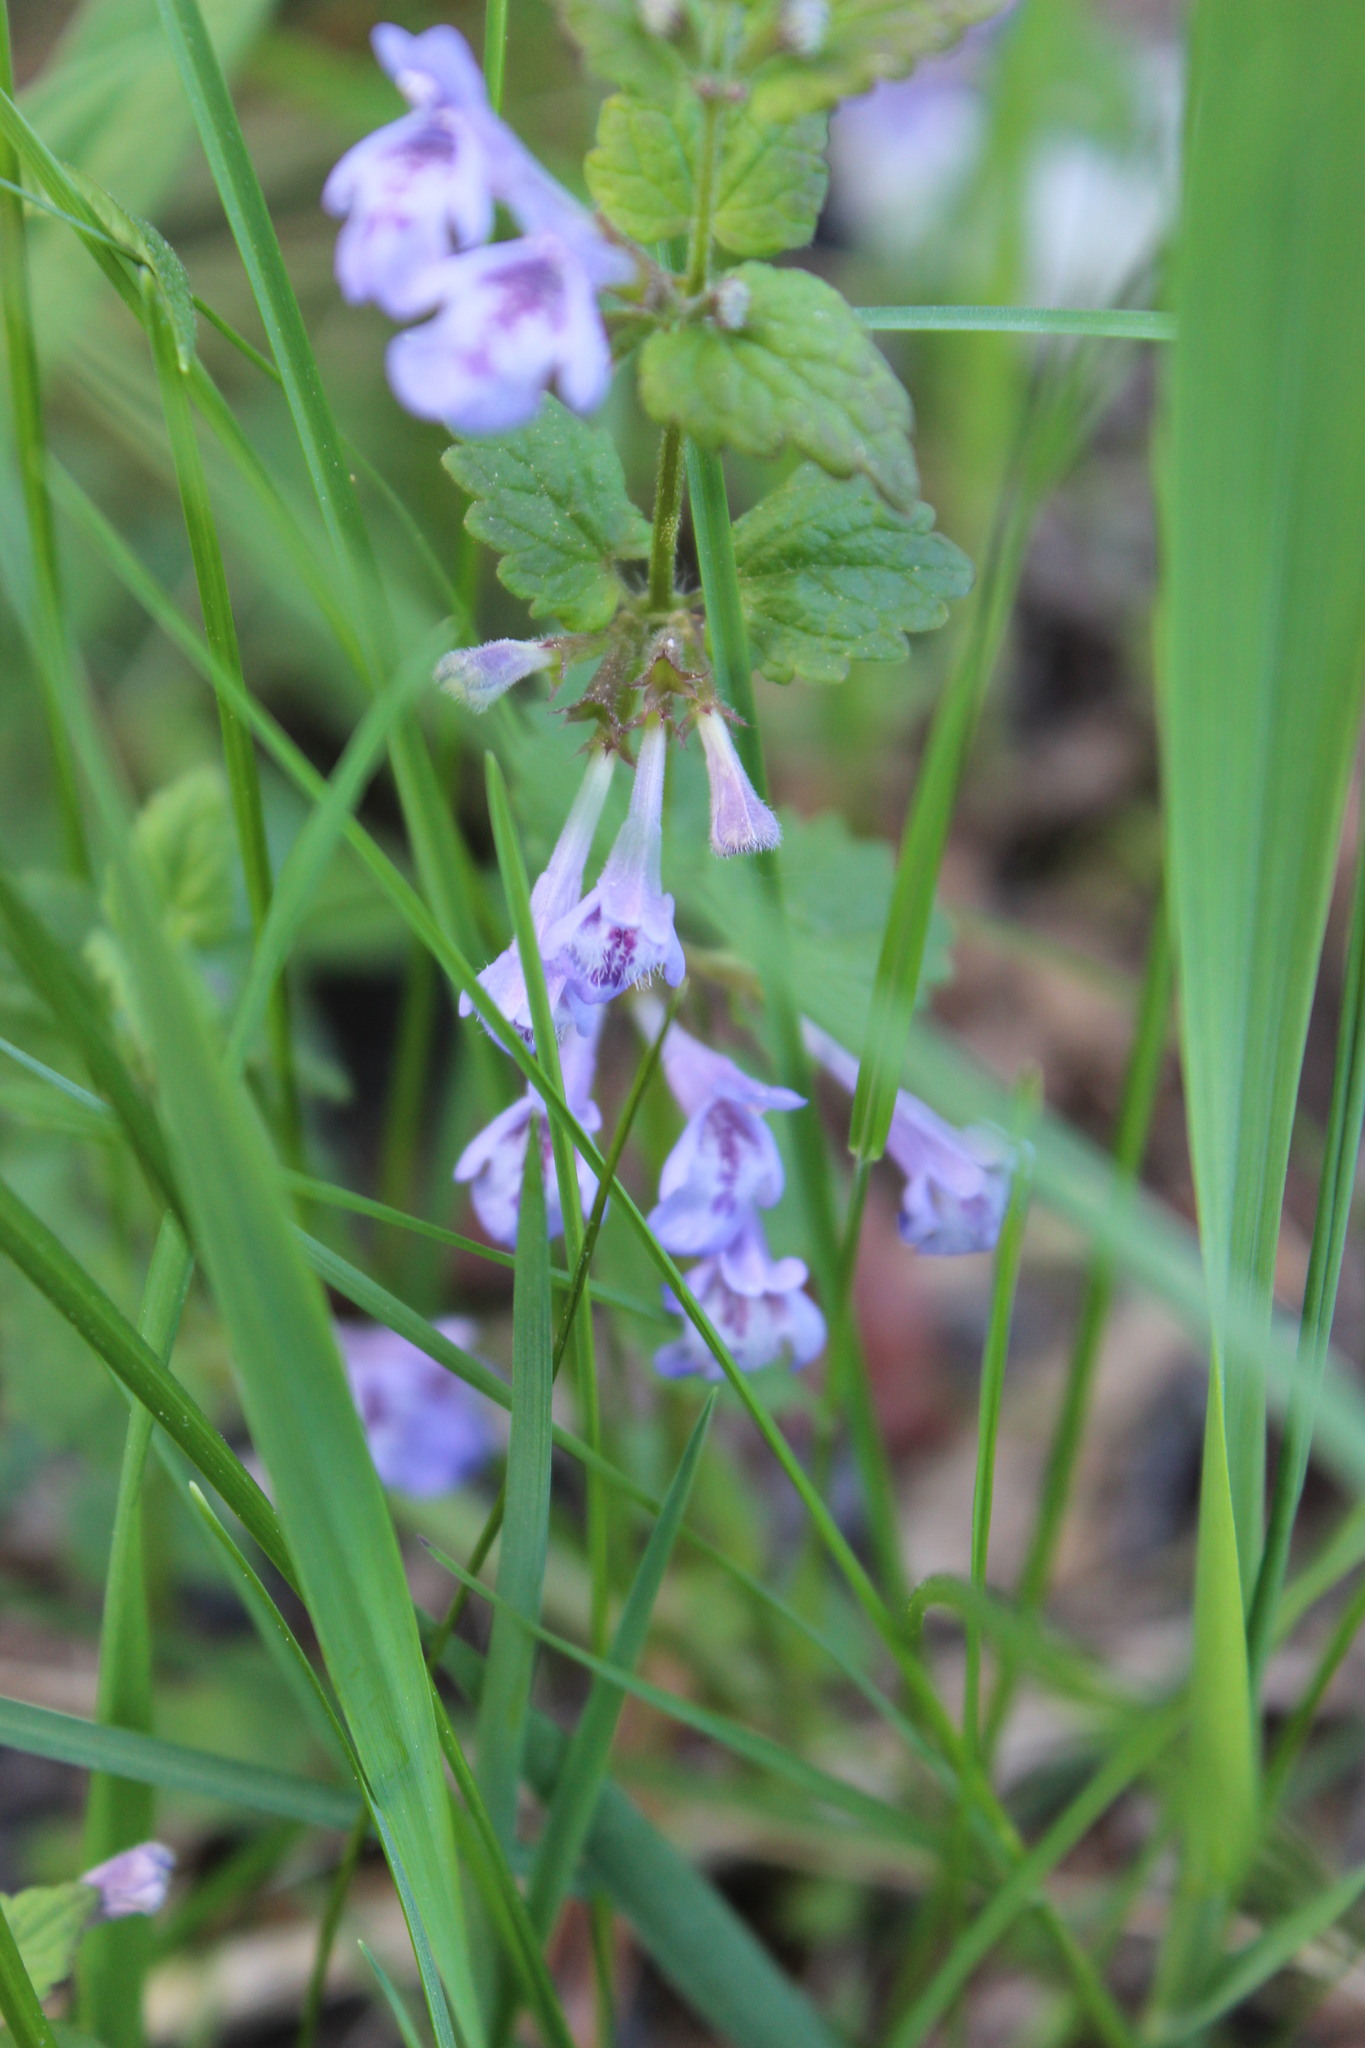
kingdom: Plantae
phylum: Tracheophyta
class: Magnoliopsida
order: Lamiales
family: Lamiaceae
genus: Glechoma
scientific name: Glechoma hederacea
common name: Ground ivy
